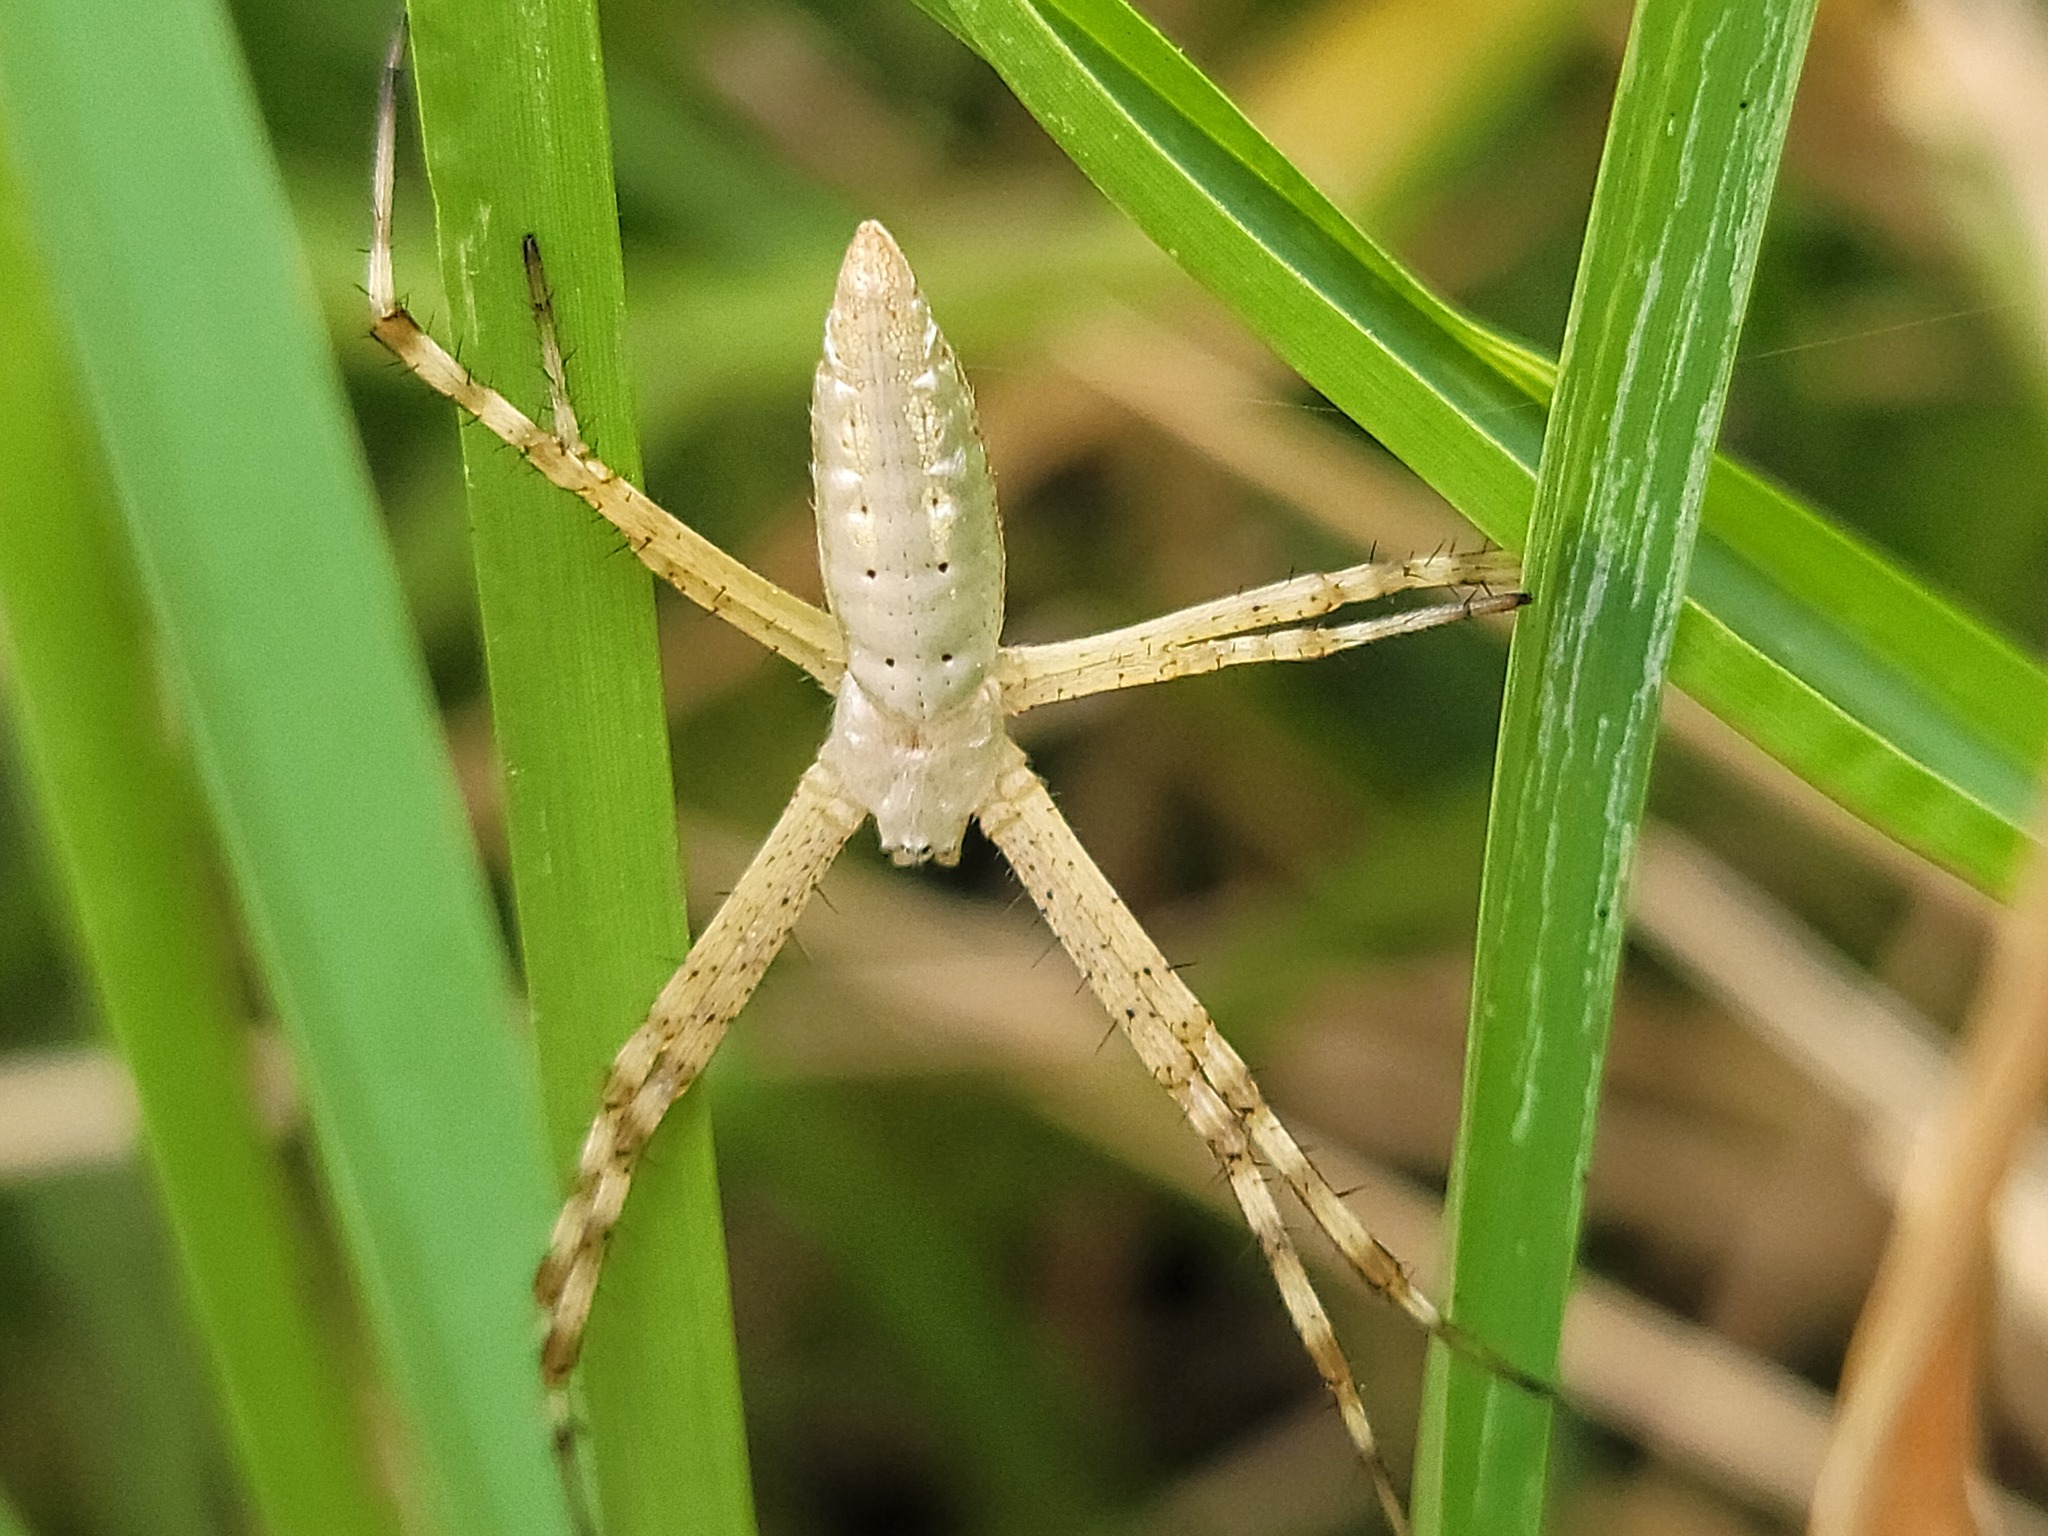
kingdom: Animalia
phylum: Arthropoda
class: Arachnida
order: Araneae
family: Araneidae
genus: Argiope
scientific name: Argiope trifasciata
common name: Banded garden spider
